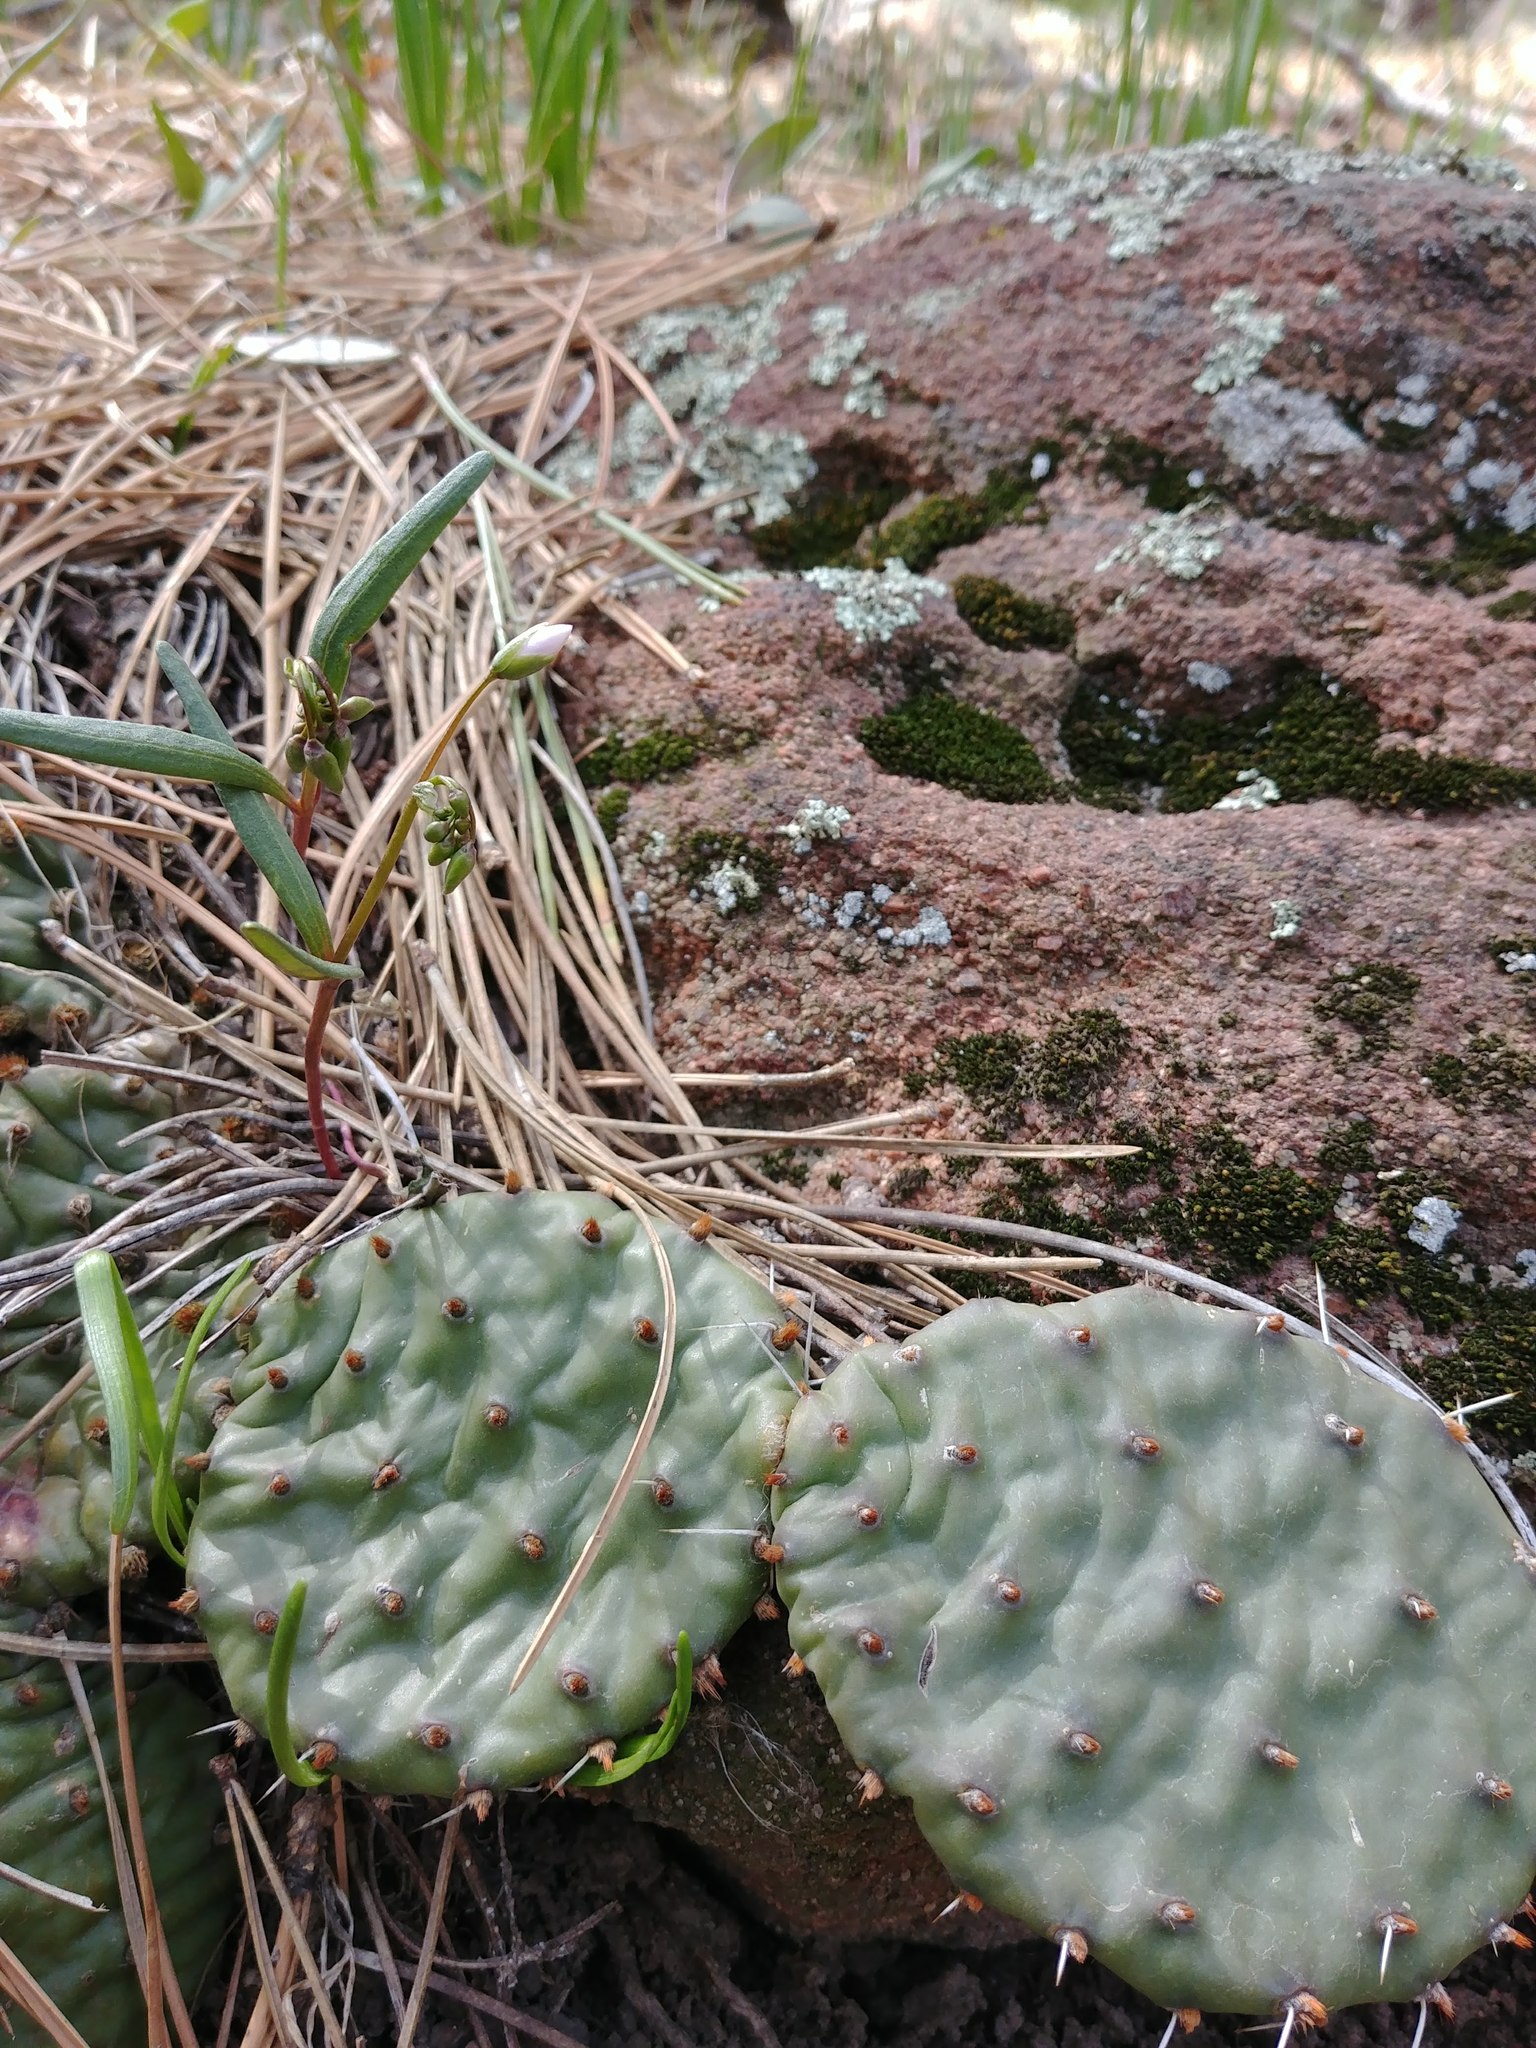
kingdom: Plantae
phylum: Tracheophyta
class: Magnoliopsida
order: Caryophyllales
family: Cactaceae
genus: Opuntia
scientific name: Opuntia macrorhiza
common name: Grassland pricklypear
